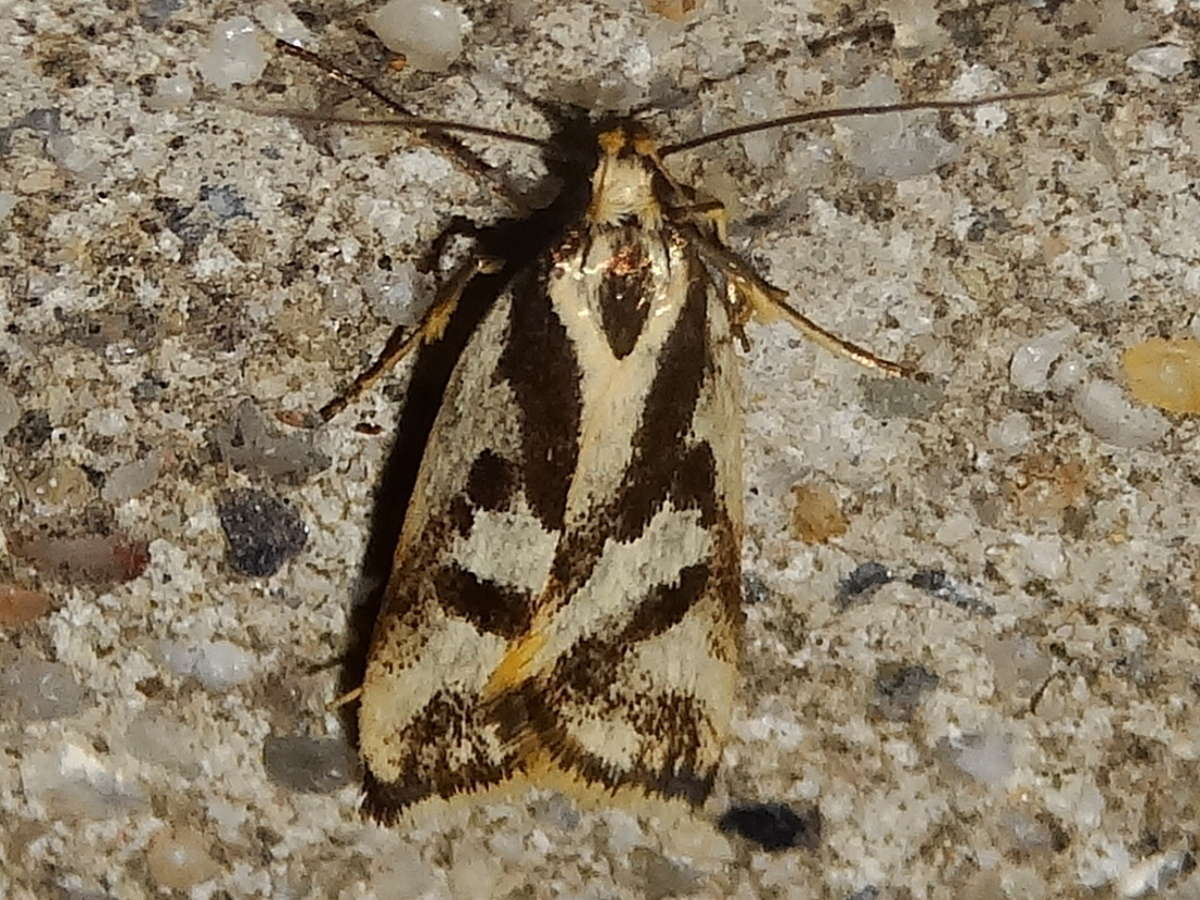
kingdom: Animalia
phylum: Arthropoda
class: Insecta
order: Lepidoptera
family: Oecophoridae
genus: Epithymema
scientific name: Epithymema incomposita
